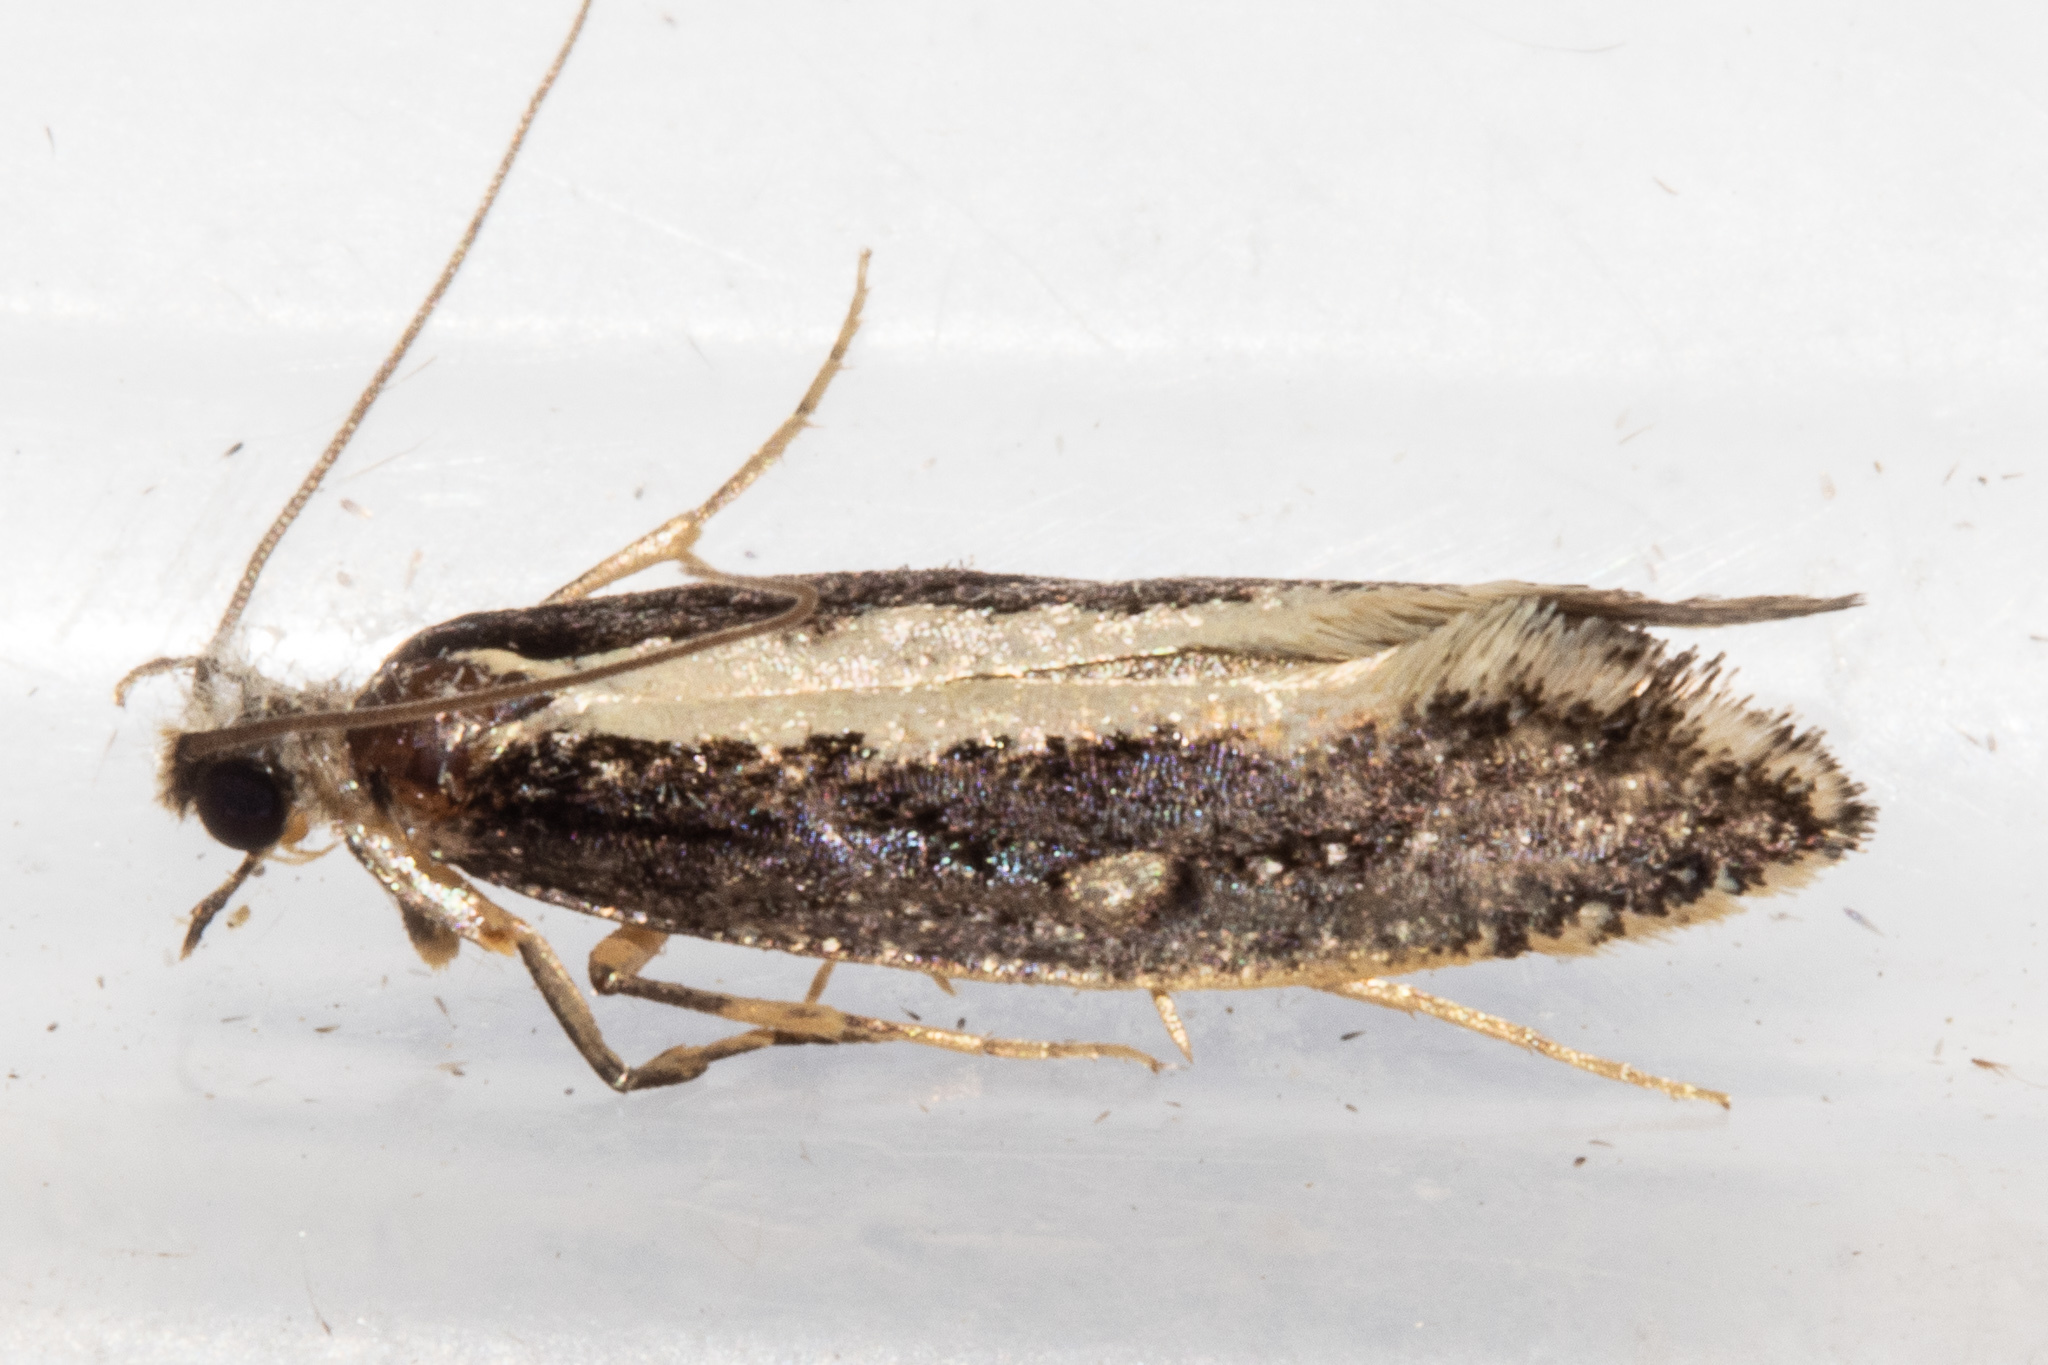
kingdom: Animalia
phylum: Arthropoda
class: Insecta
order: Lepidoptera
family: Tineidae
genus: Monopis
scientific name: Monopis ethelella
